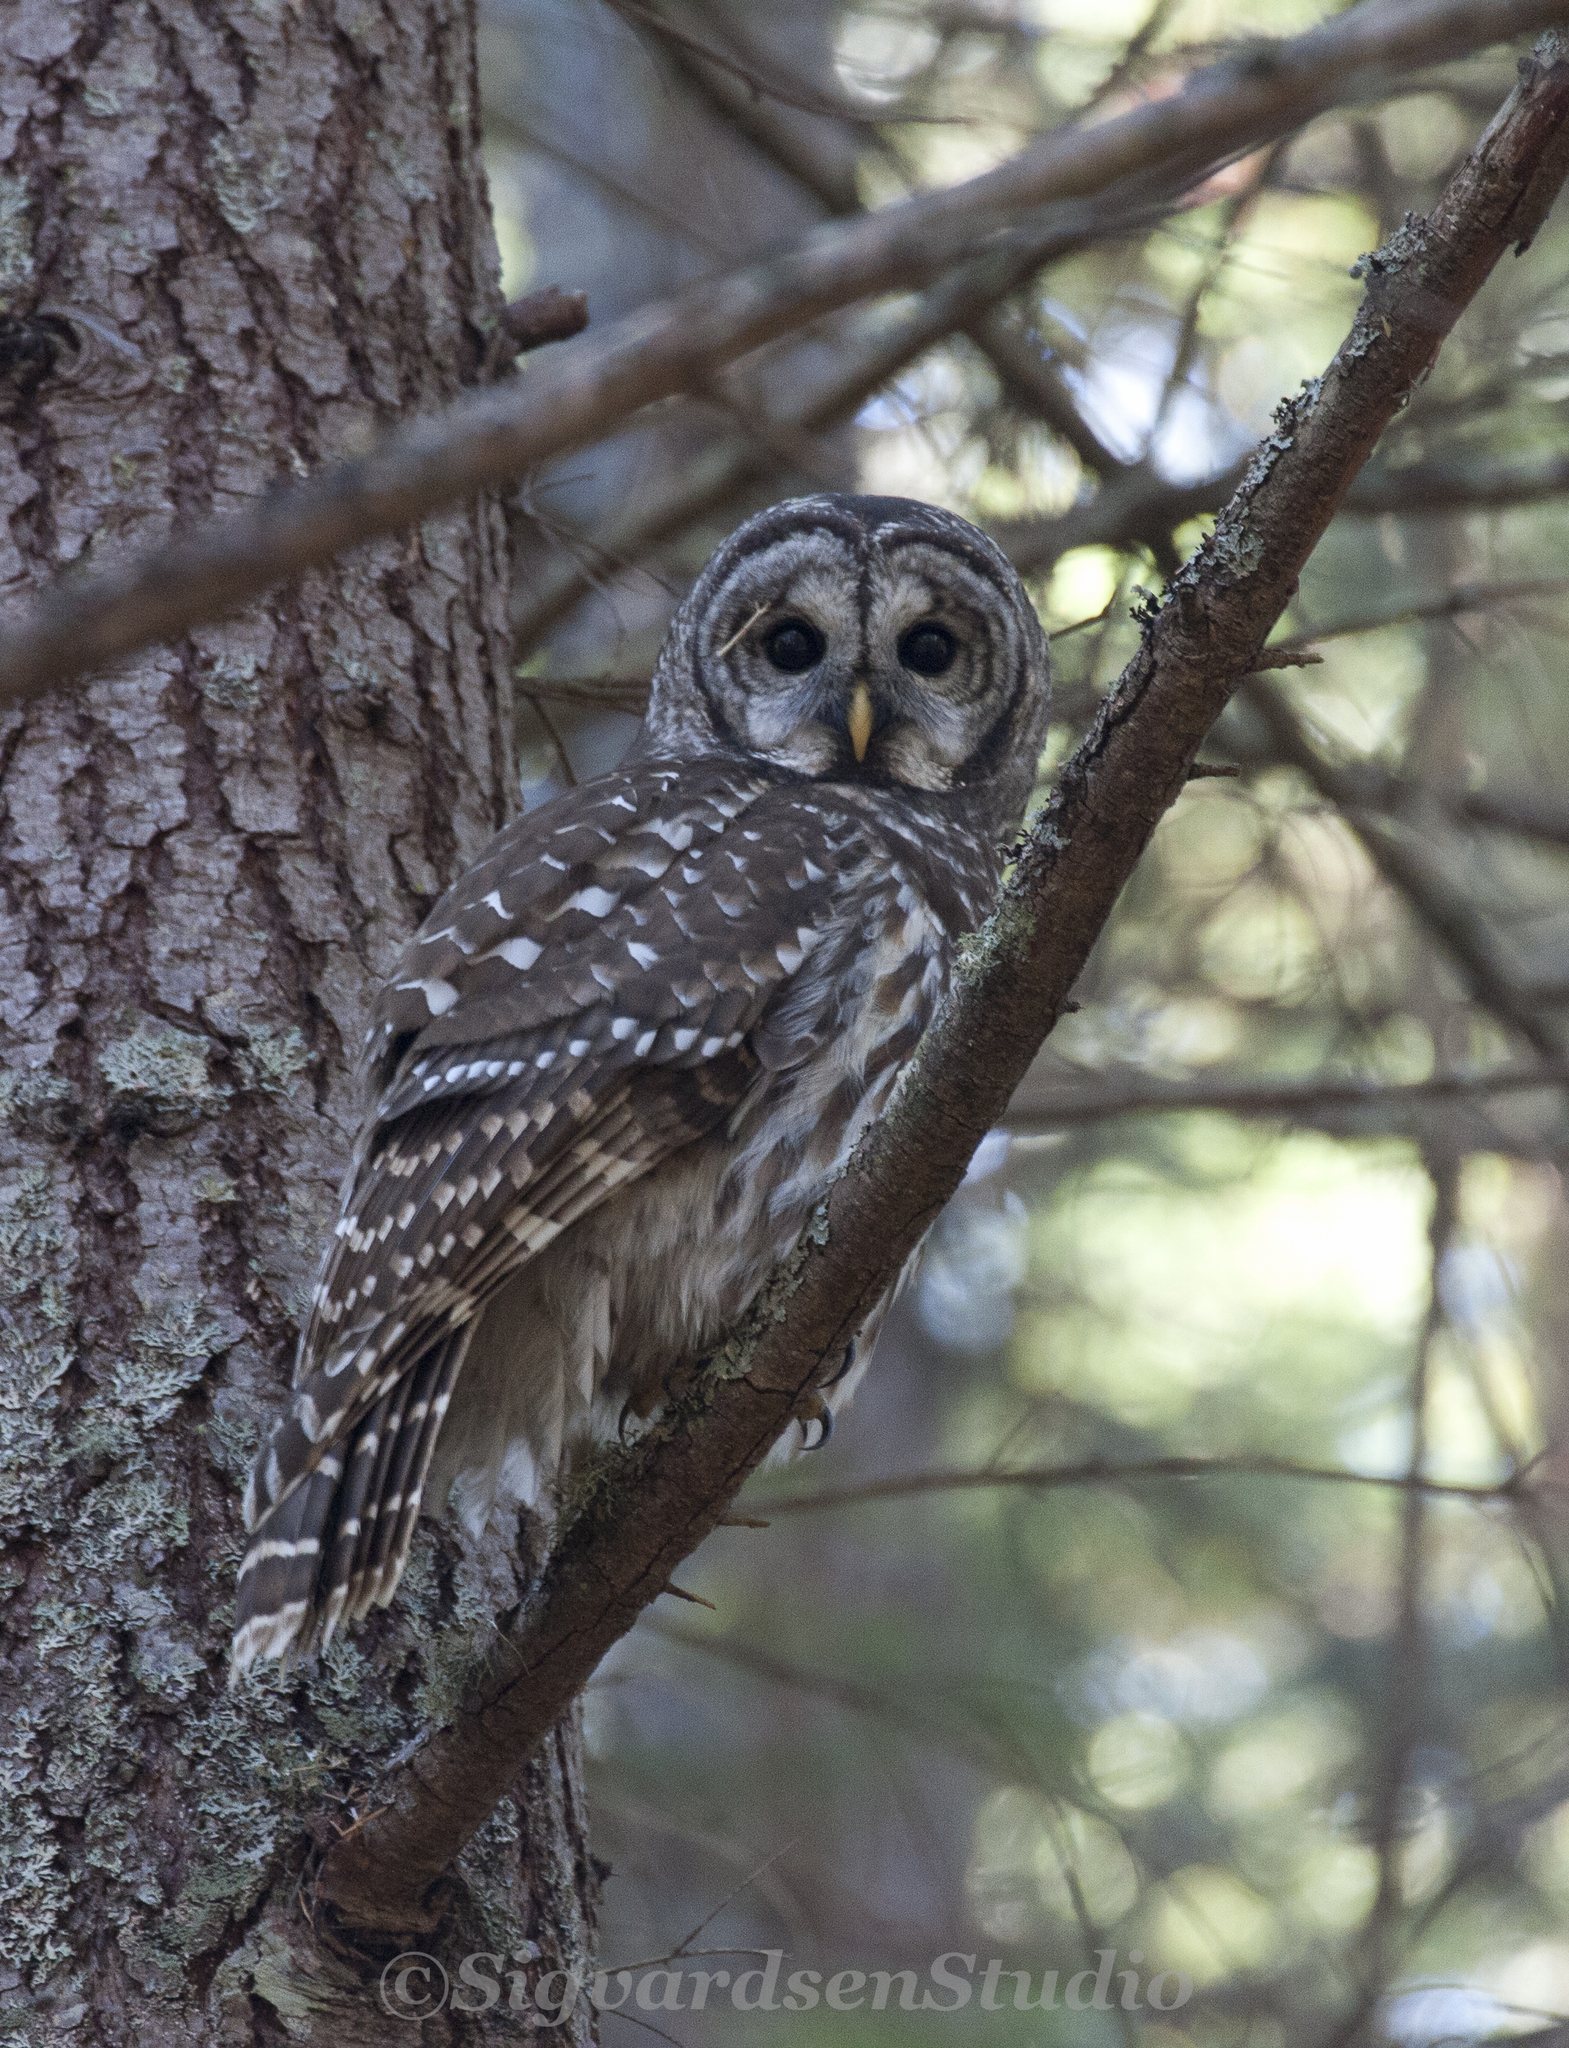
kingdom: Animalia
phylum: Chordata
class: Aves
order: Strigiformes
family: Strigidae
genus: Strix
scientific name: Strix varia
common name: Barred owl
